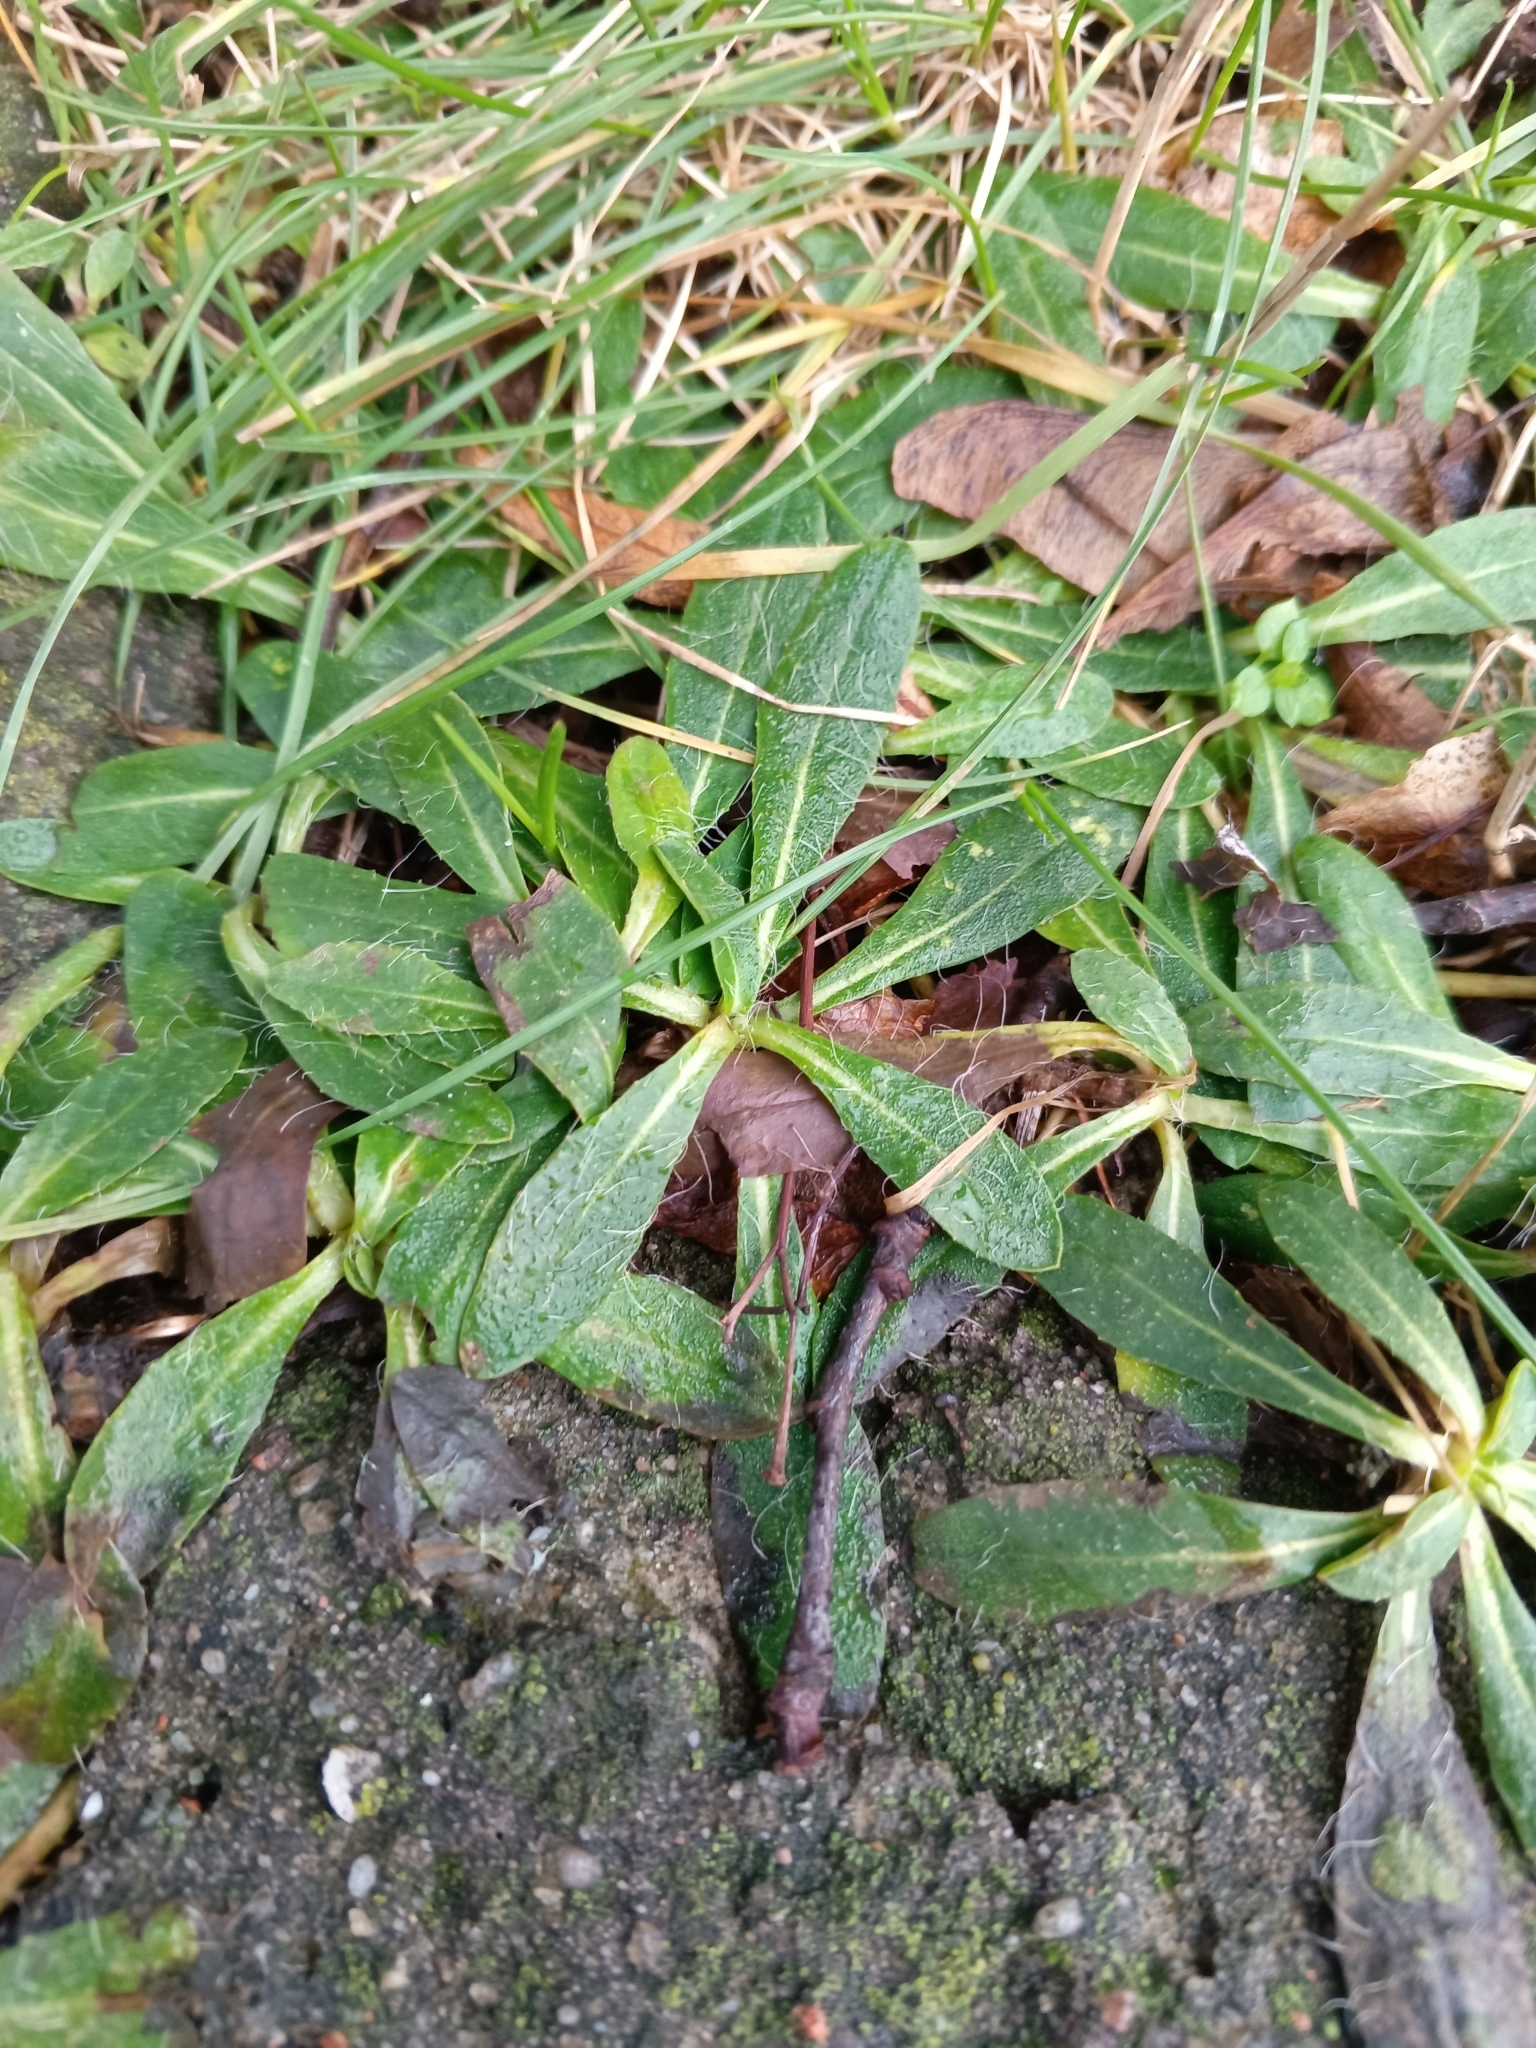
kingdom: Plantae
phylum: Tracheophyta
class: Magnoliopsida
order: Asterales
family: Asteraceae
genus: Pilosella
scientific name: Pilosella officinarum
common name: Mouse-ear hawkweed
